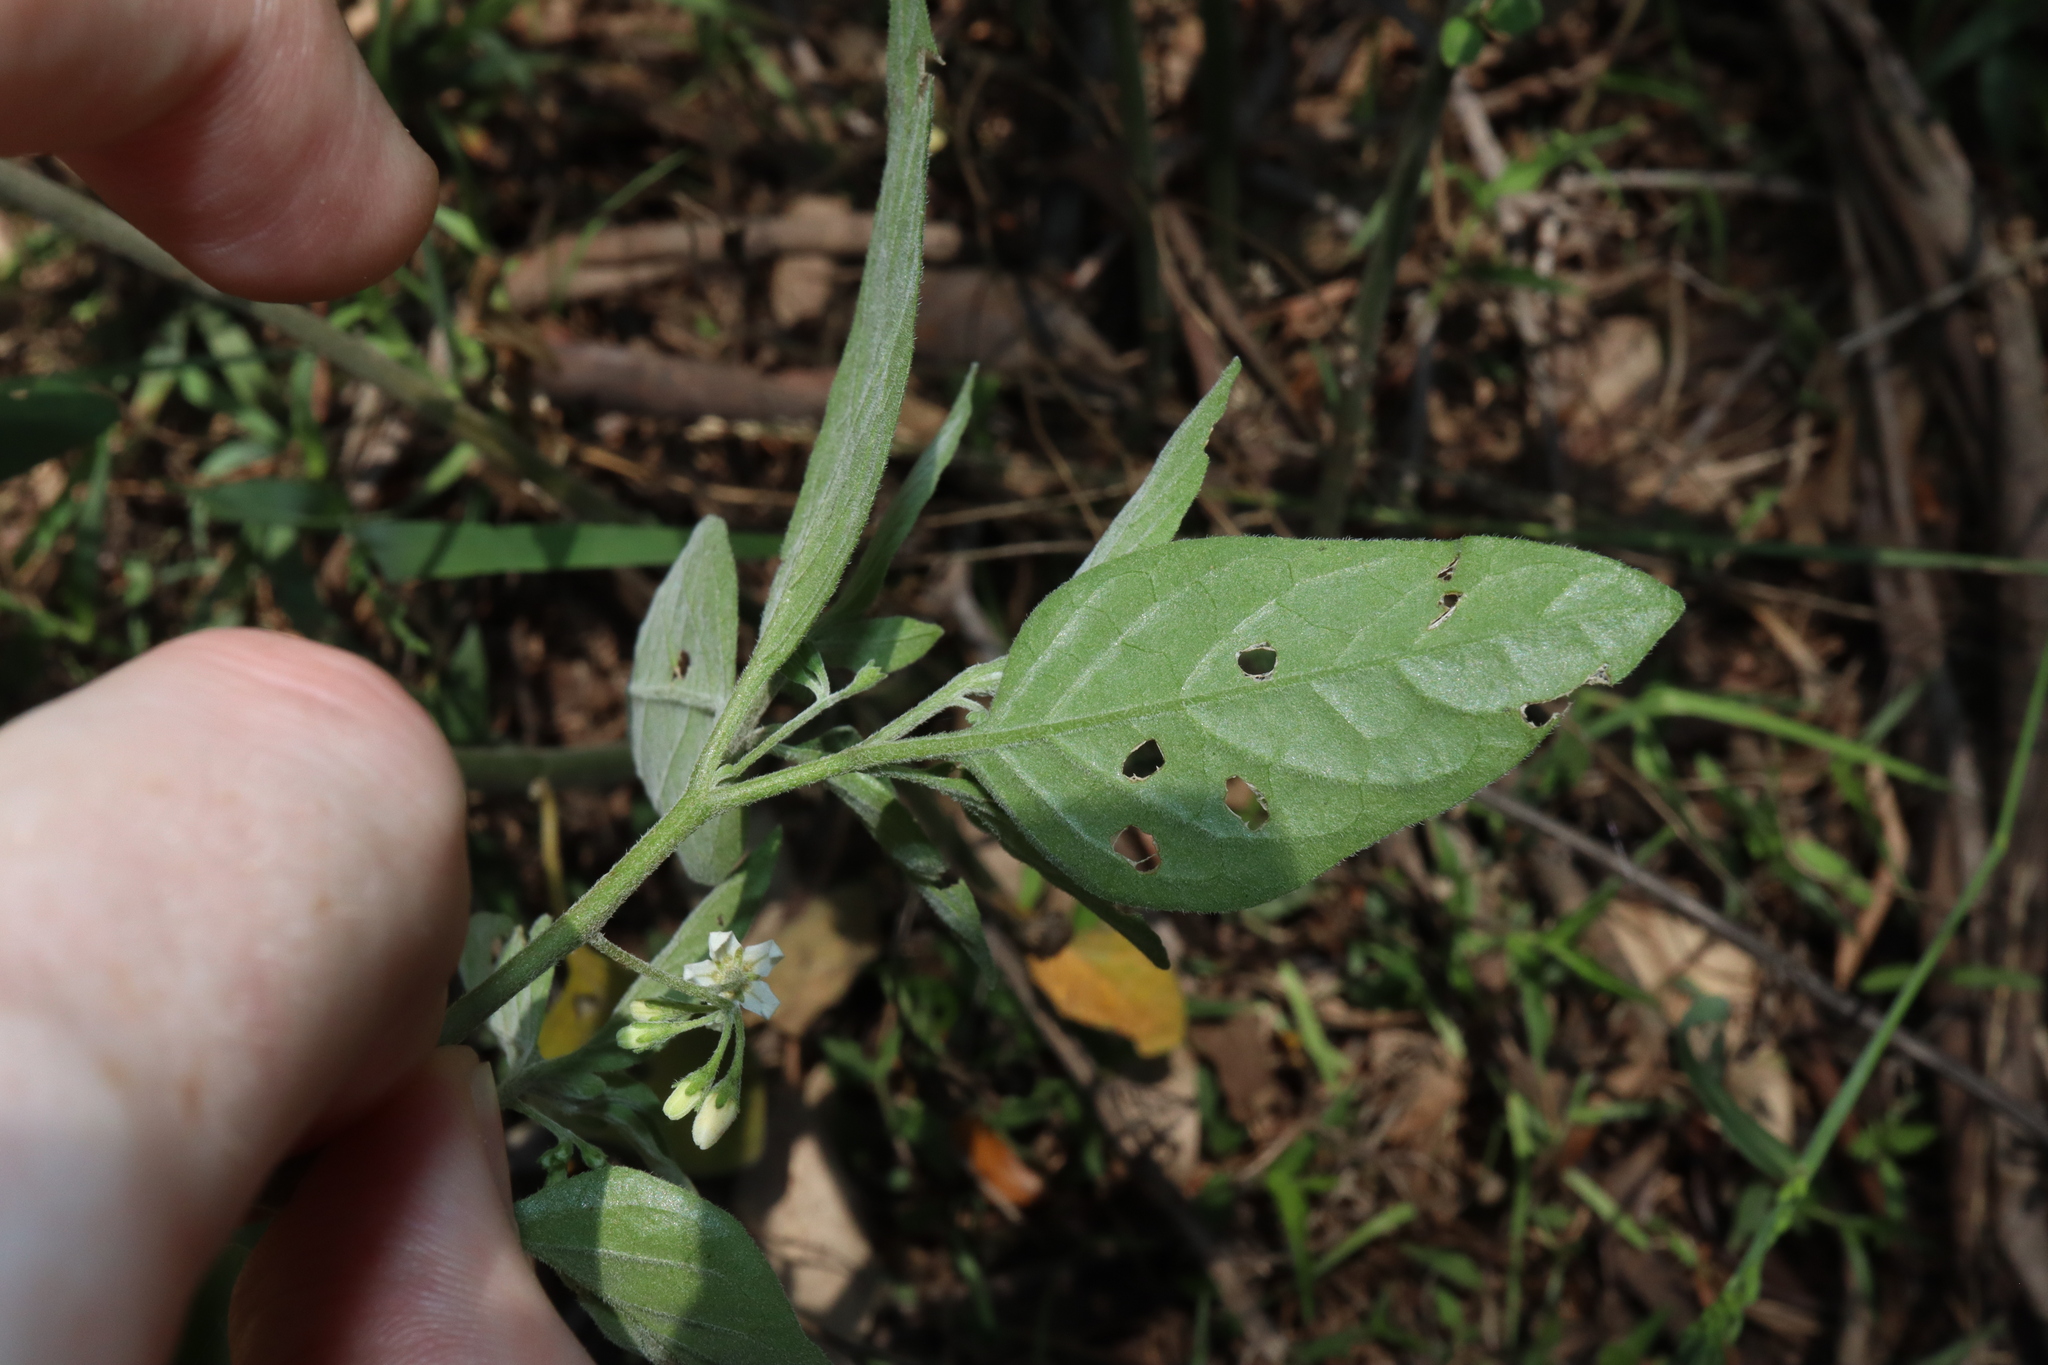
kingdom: Plantae
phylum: Tracheophyta
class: Magnoliopsida
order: Solanales
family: Solanaceae
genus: Solanum
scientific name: Solanum chenopodioides
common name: Tall nightshade
